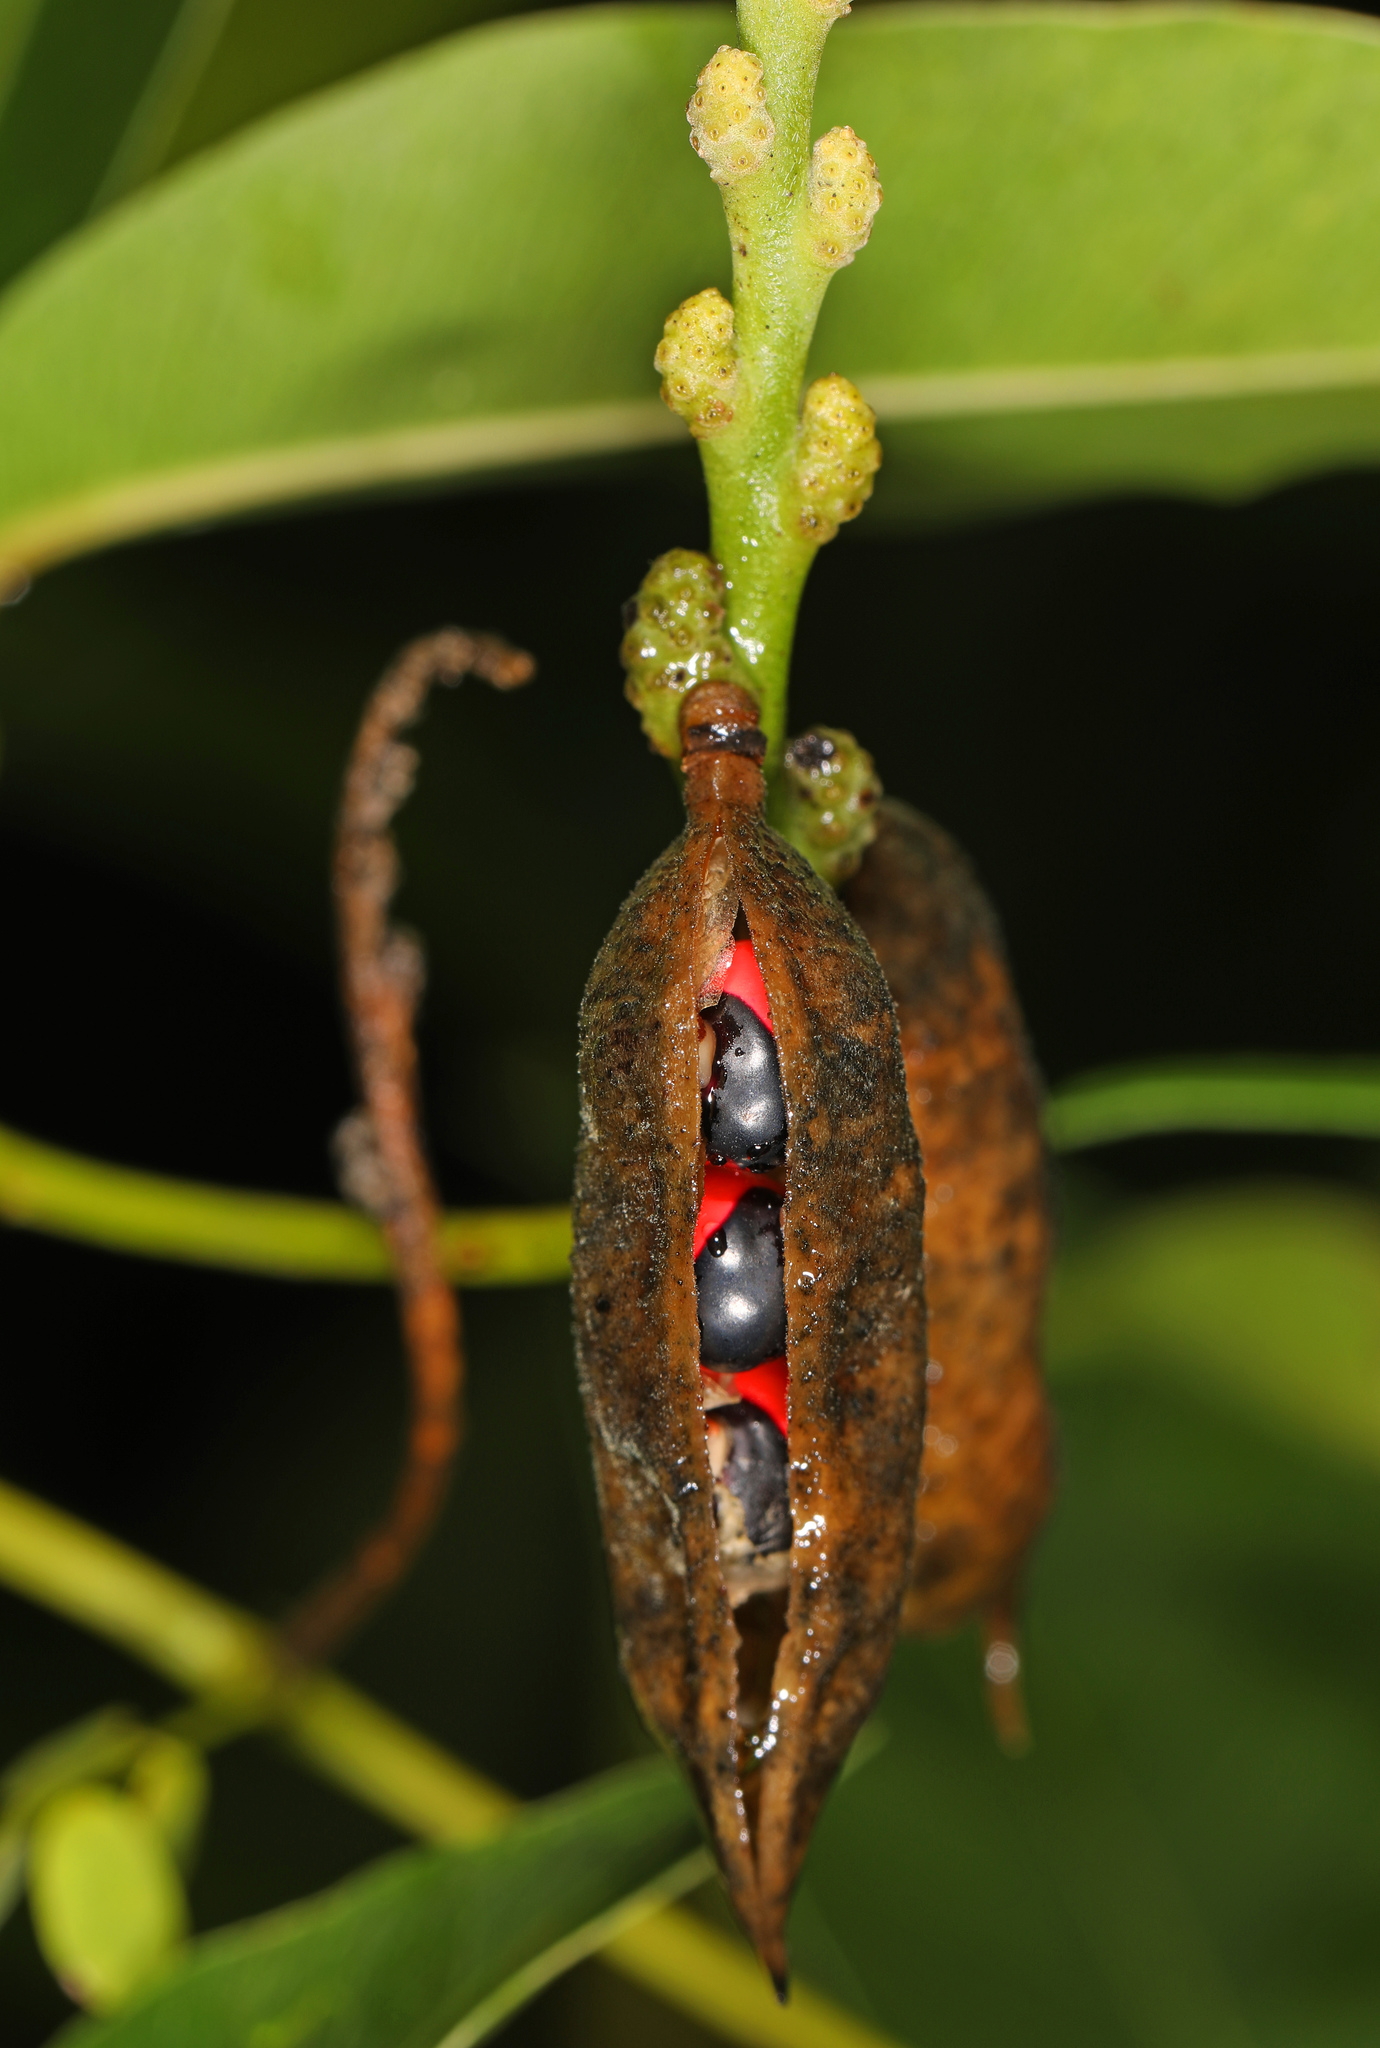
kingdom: Plantae
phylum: Tracheophyta
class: Magnoliopsida
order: Fabales
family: Fabaceae
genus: Abrus
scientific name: Abrus precatorius
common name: Rosarypea
